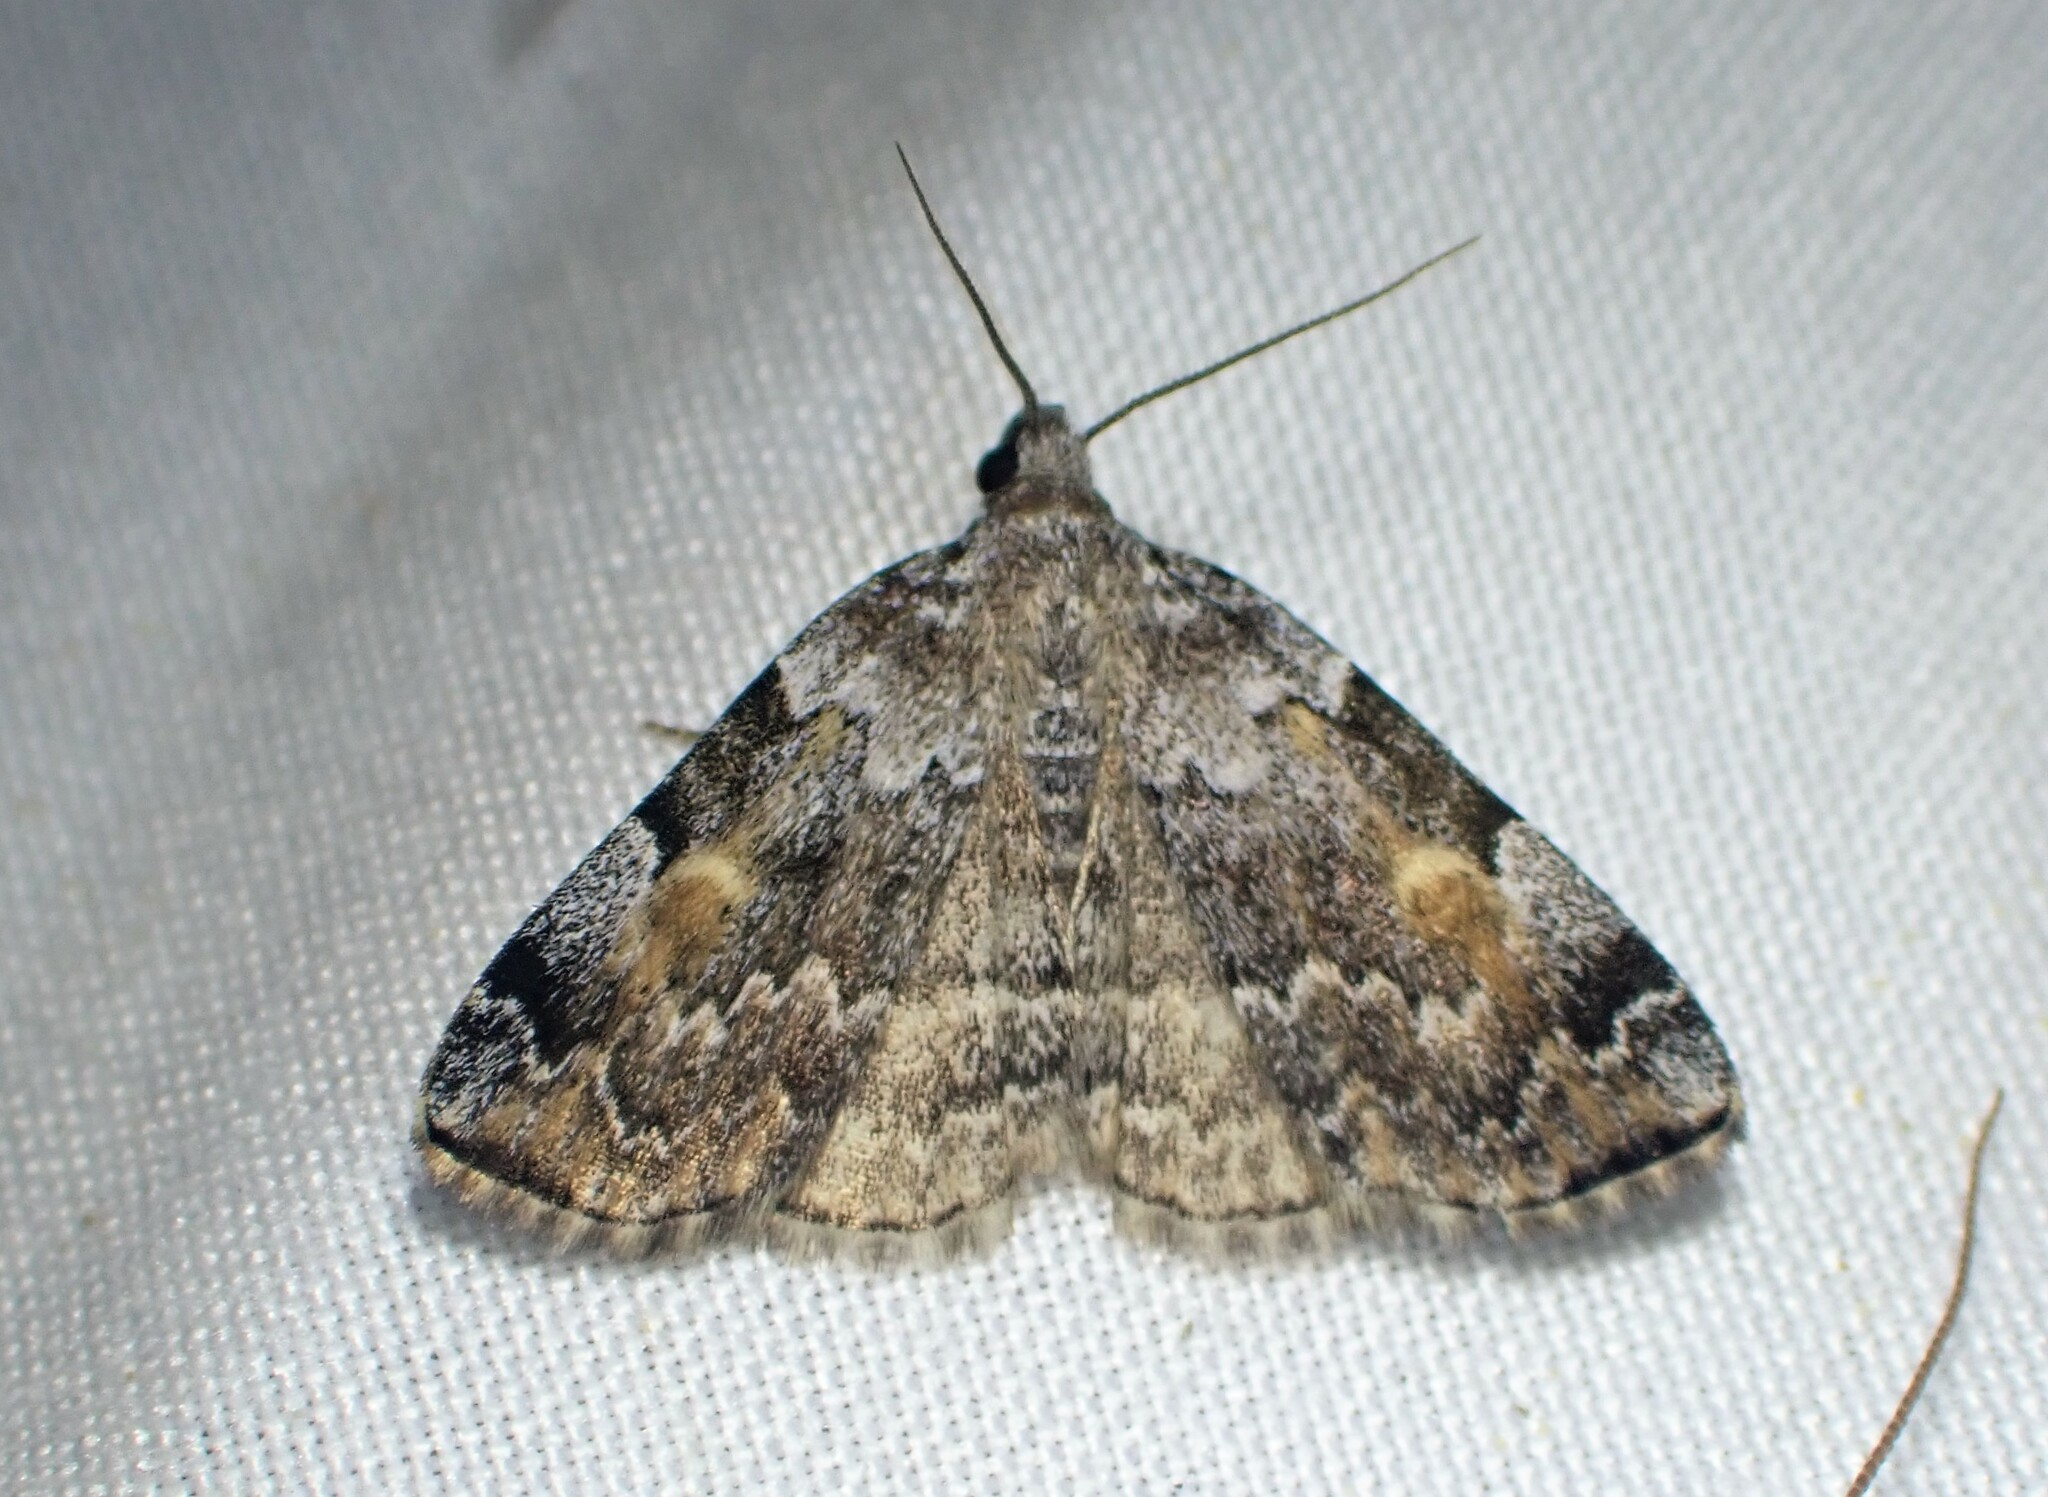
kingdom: Animalia
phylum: Arthropoda
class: Insecta
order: Lepidoptera
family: Erebidae
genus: Idia
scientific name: Idia americalis
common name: American idia moth
